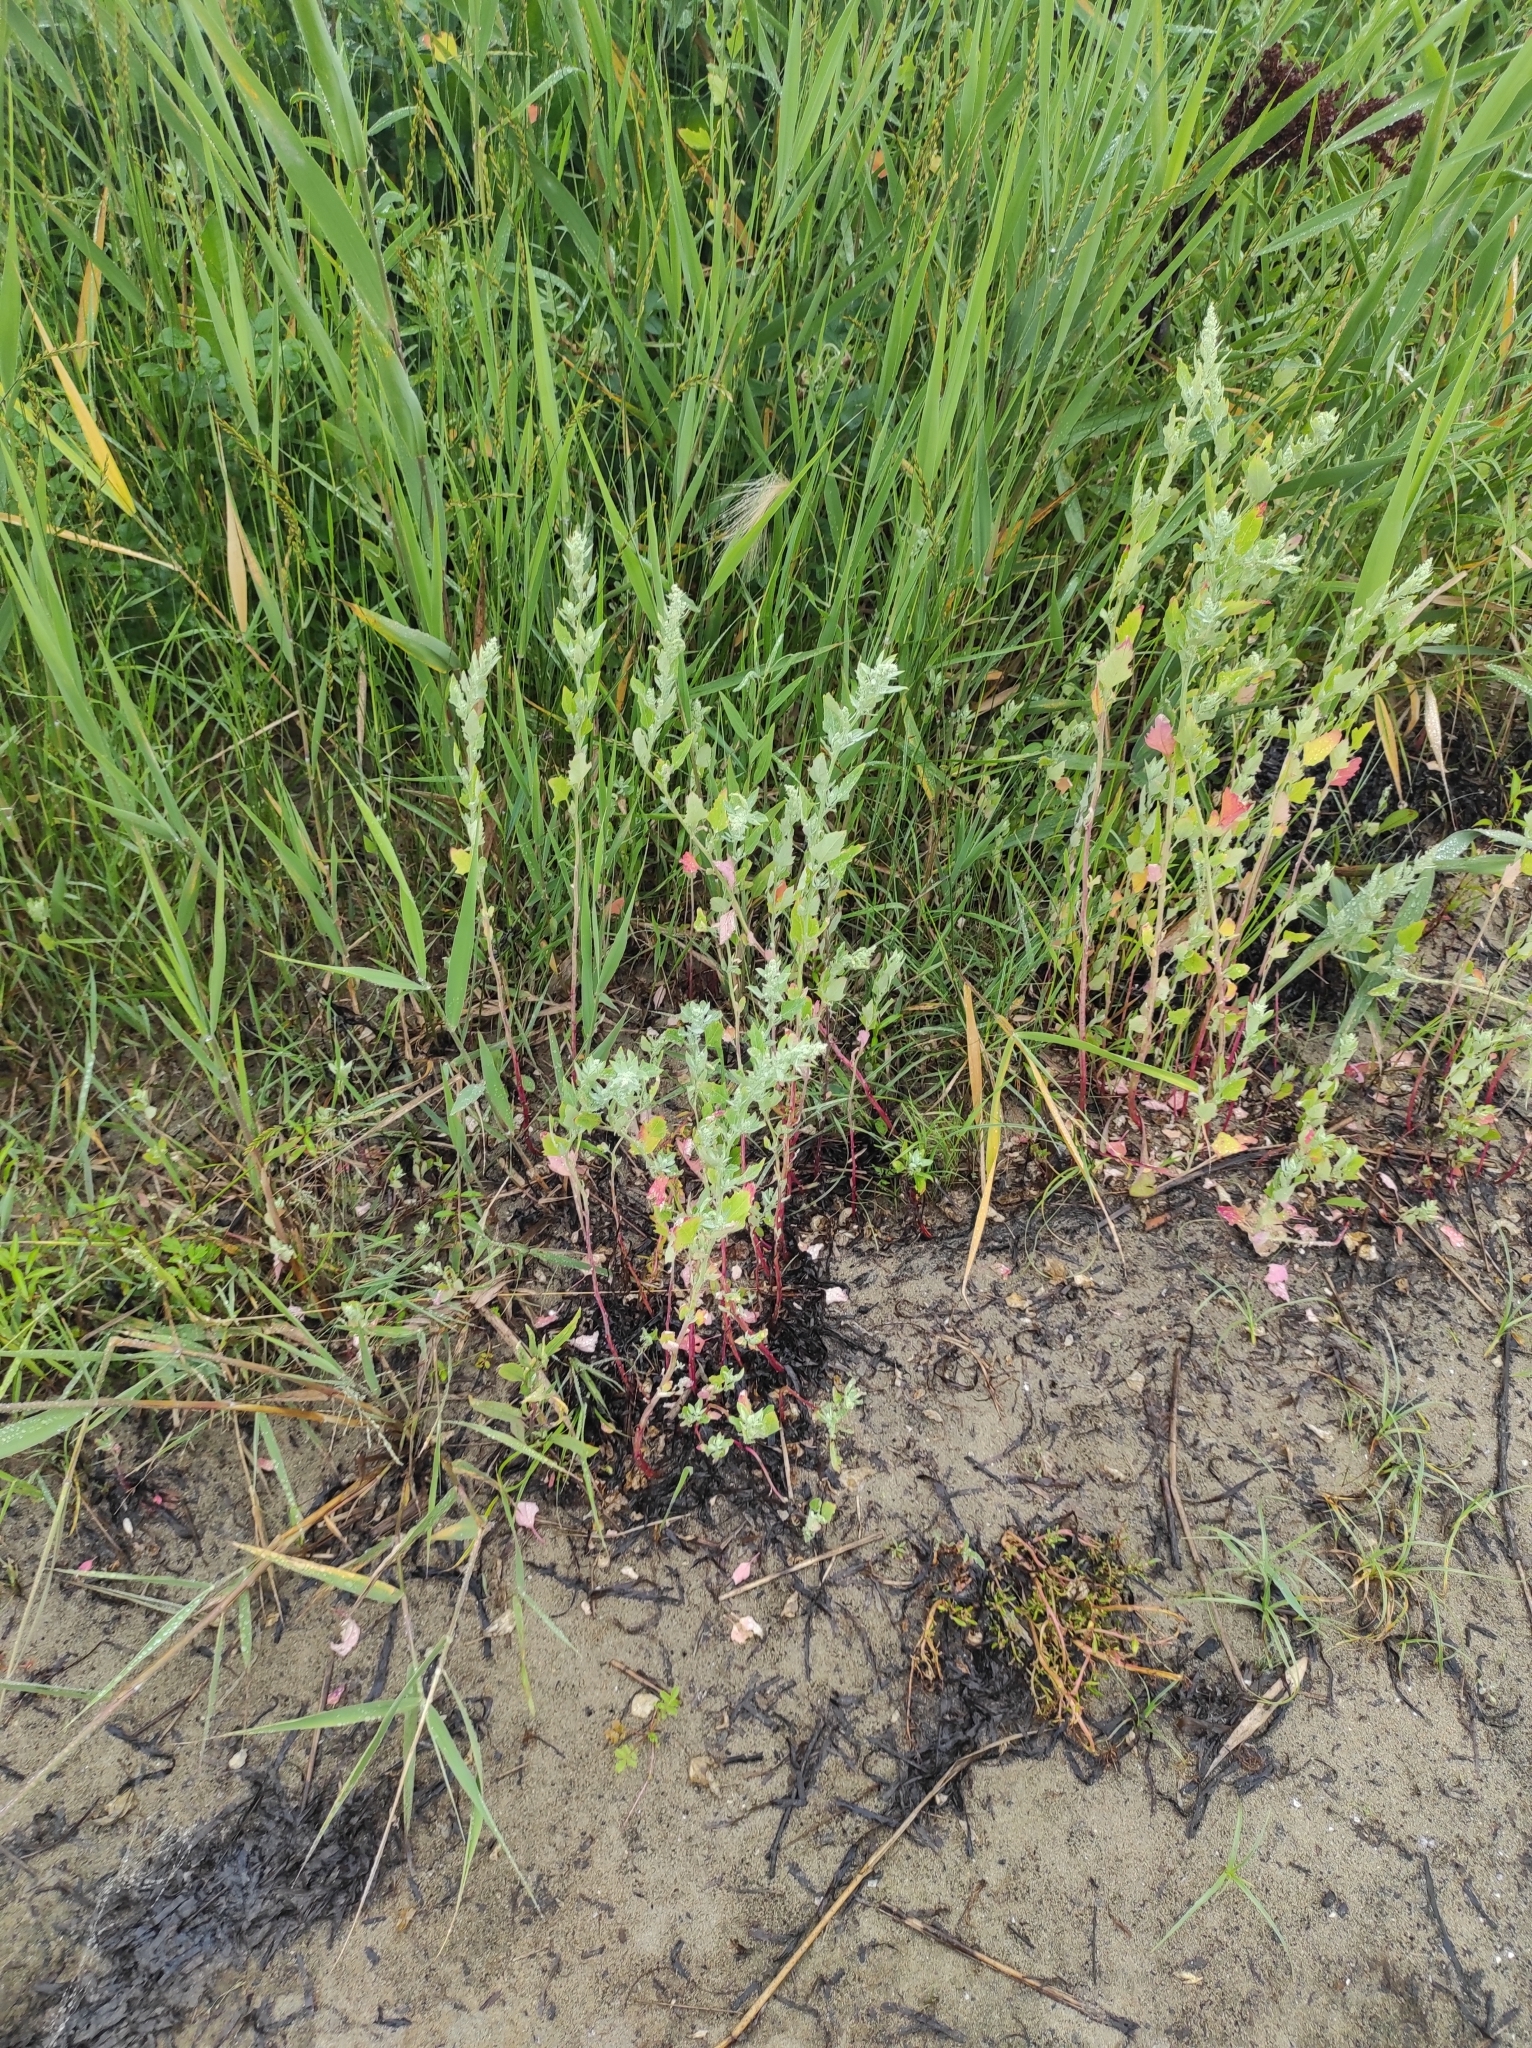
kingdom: Plantae
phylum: Tracheophyta
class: Magnoliopsida
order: Caryophyllales
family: Amaranthaceae
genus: Chenopodium
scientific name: Chenopodium album
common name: Fat-hen
